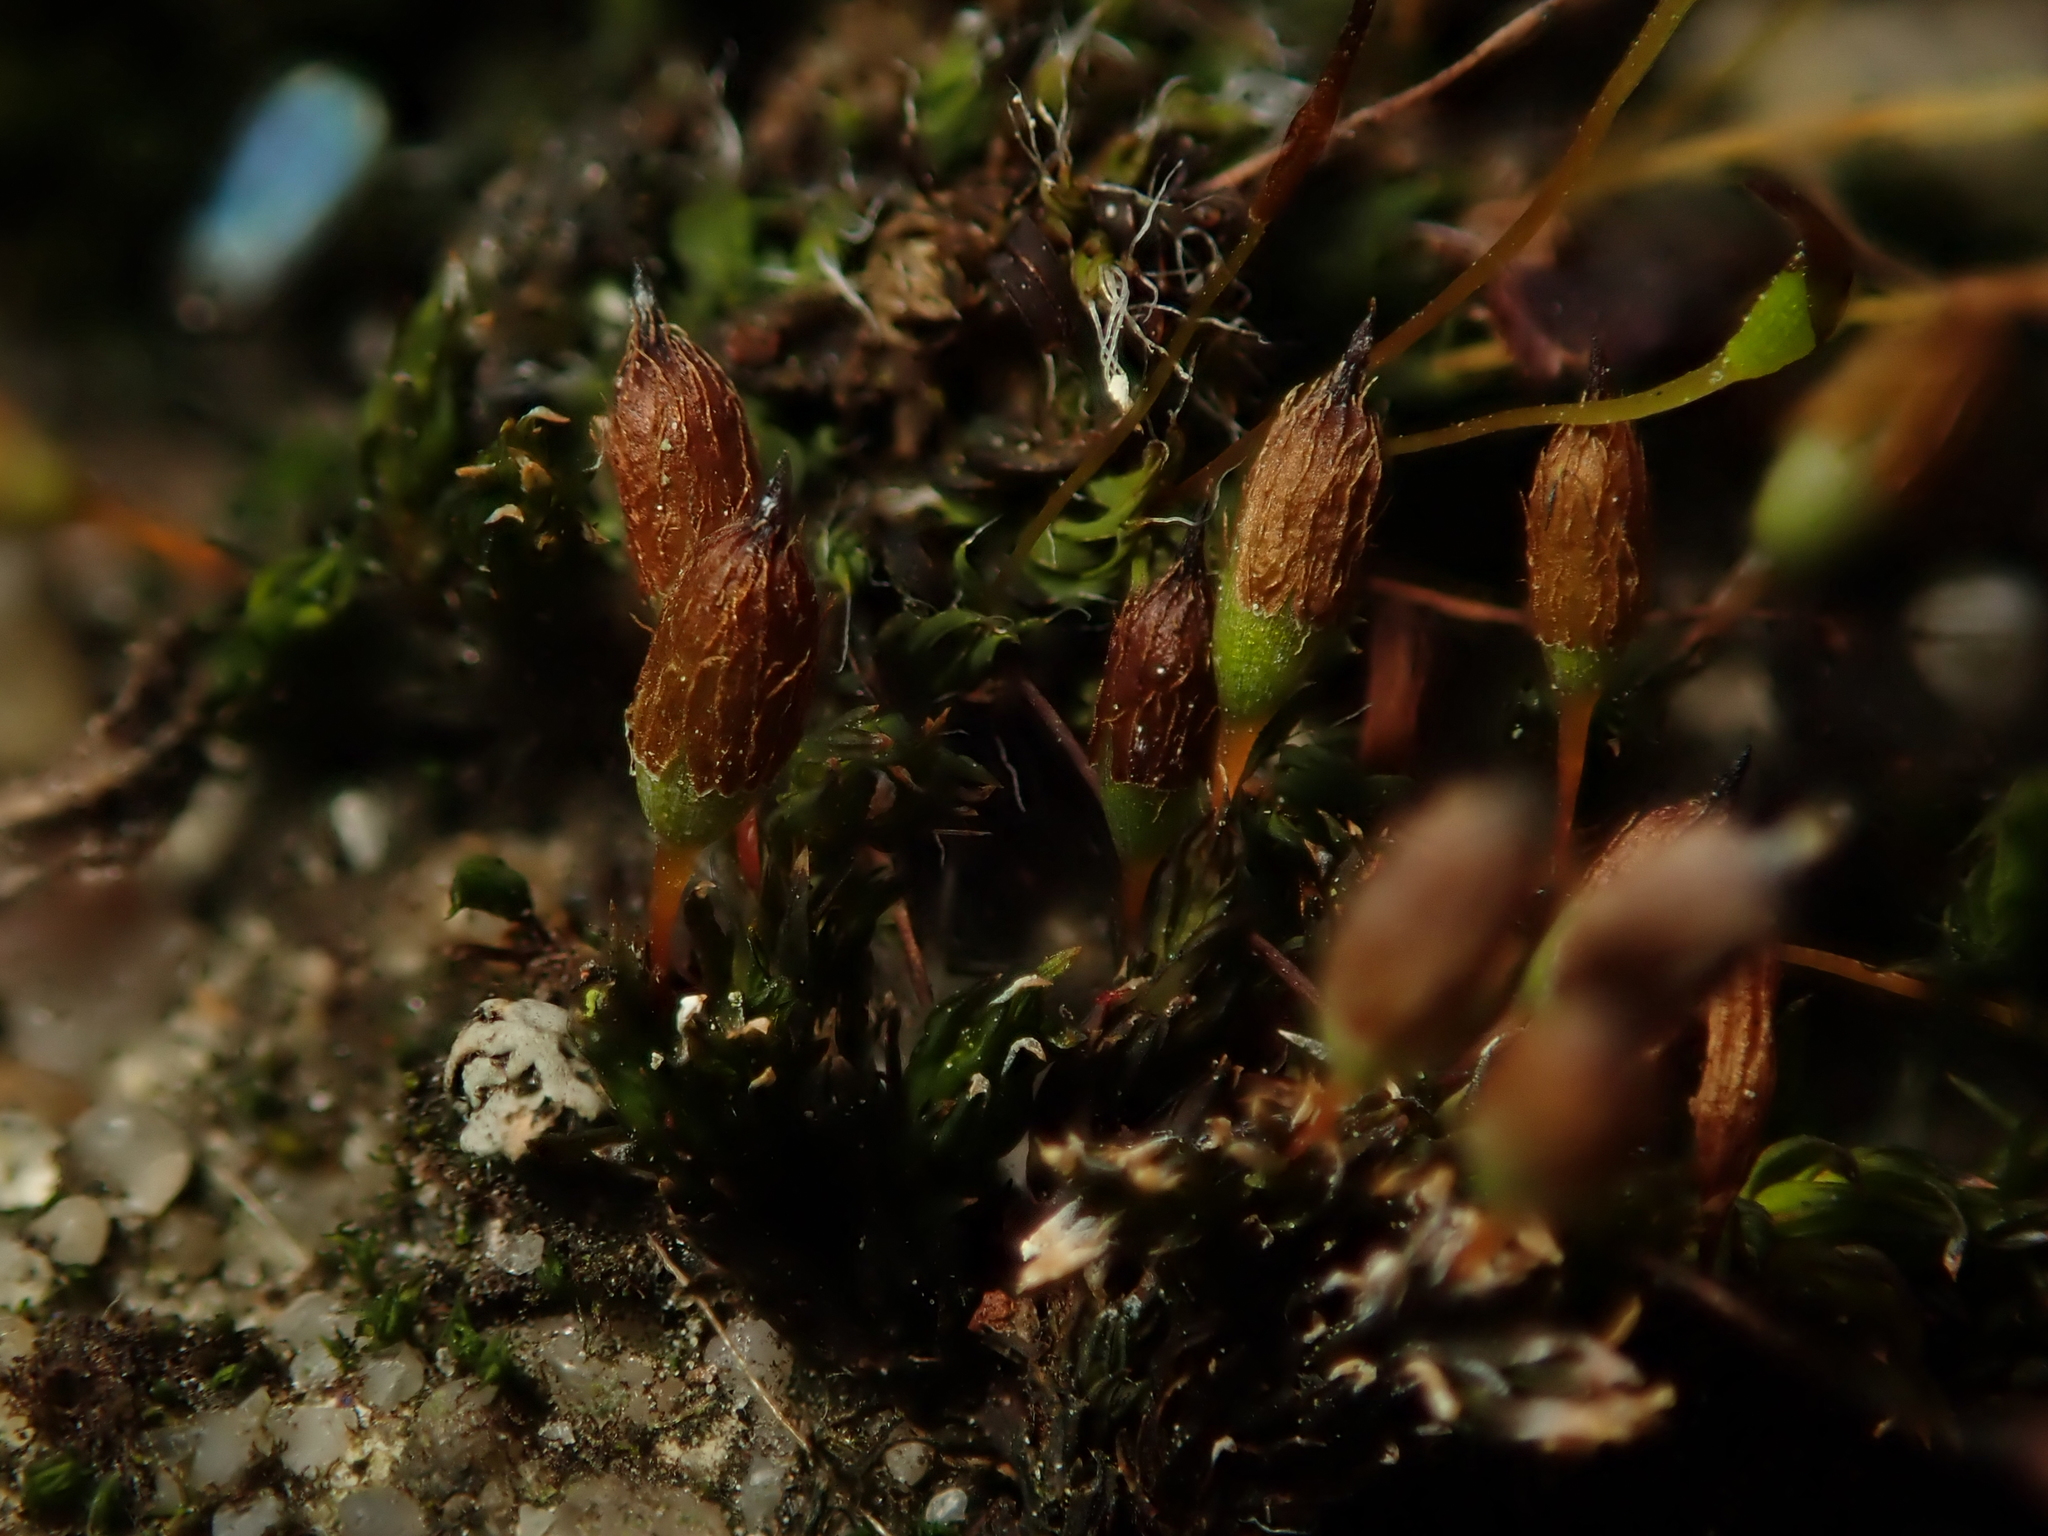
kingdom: Plantae
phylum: Bryophyta
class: Bryopsida
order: Orthotrichales
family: Orthotrichaceae
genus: Orthotrichum
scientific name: Orthotrichum anomalum
